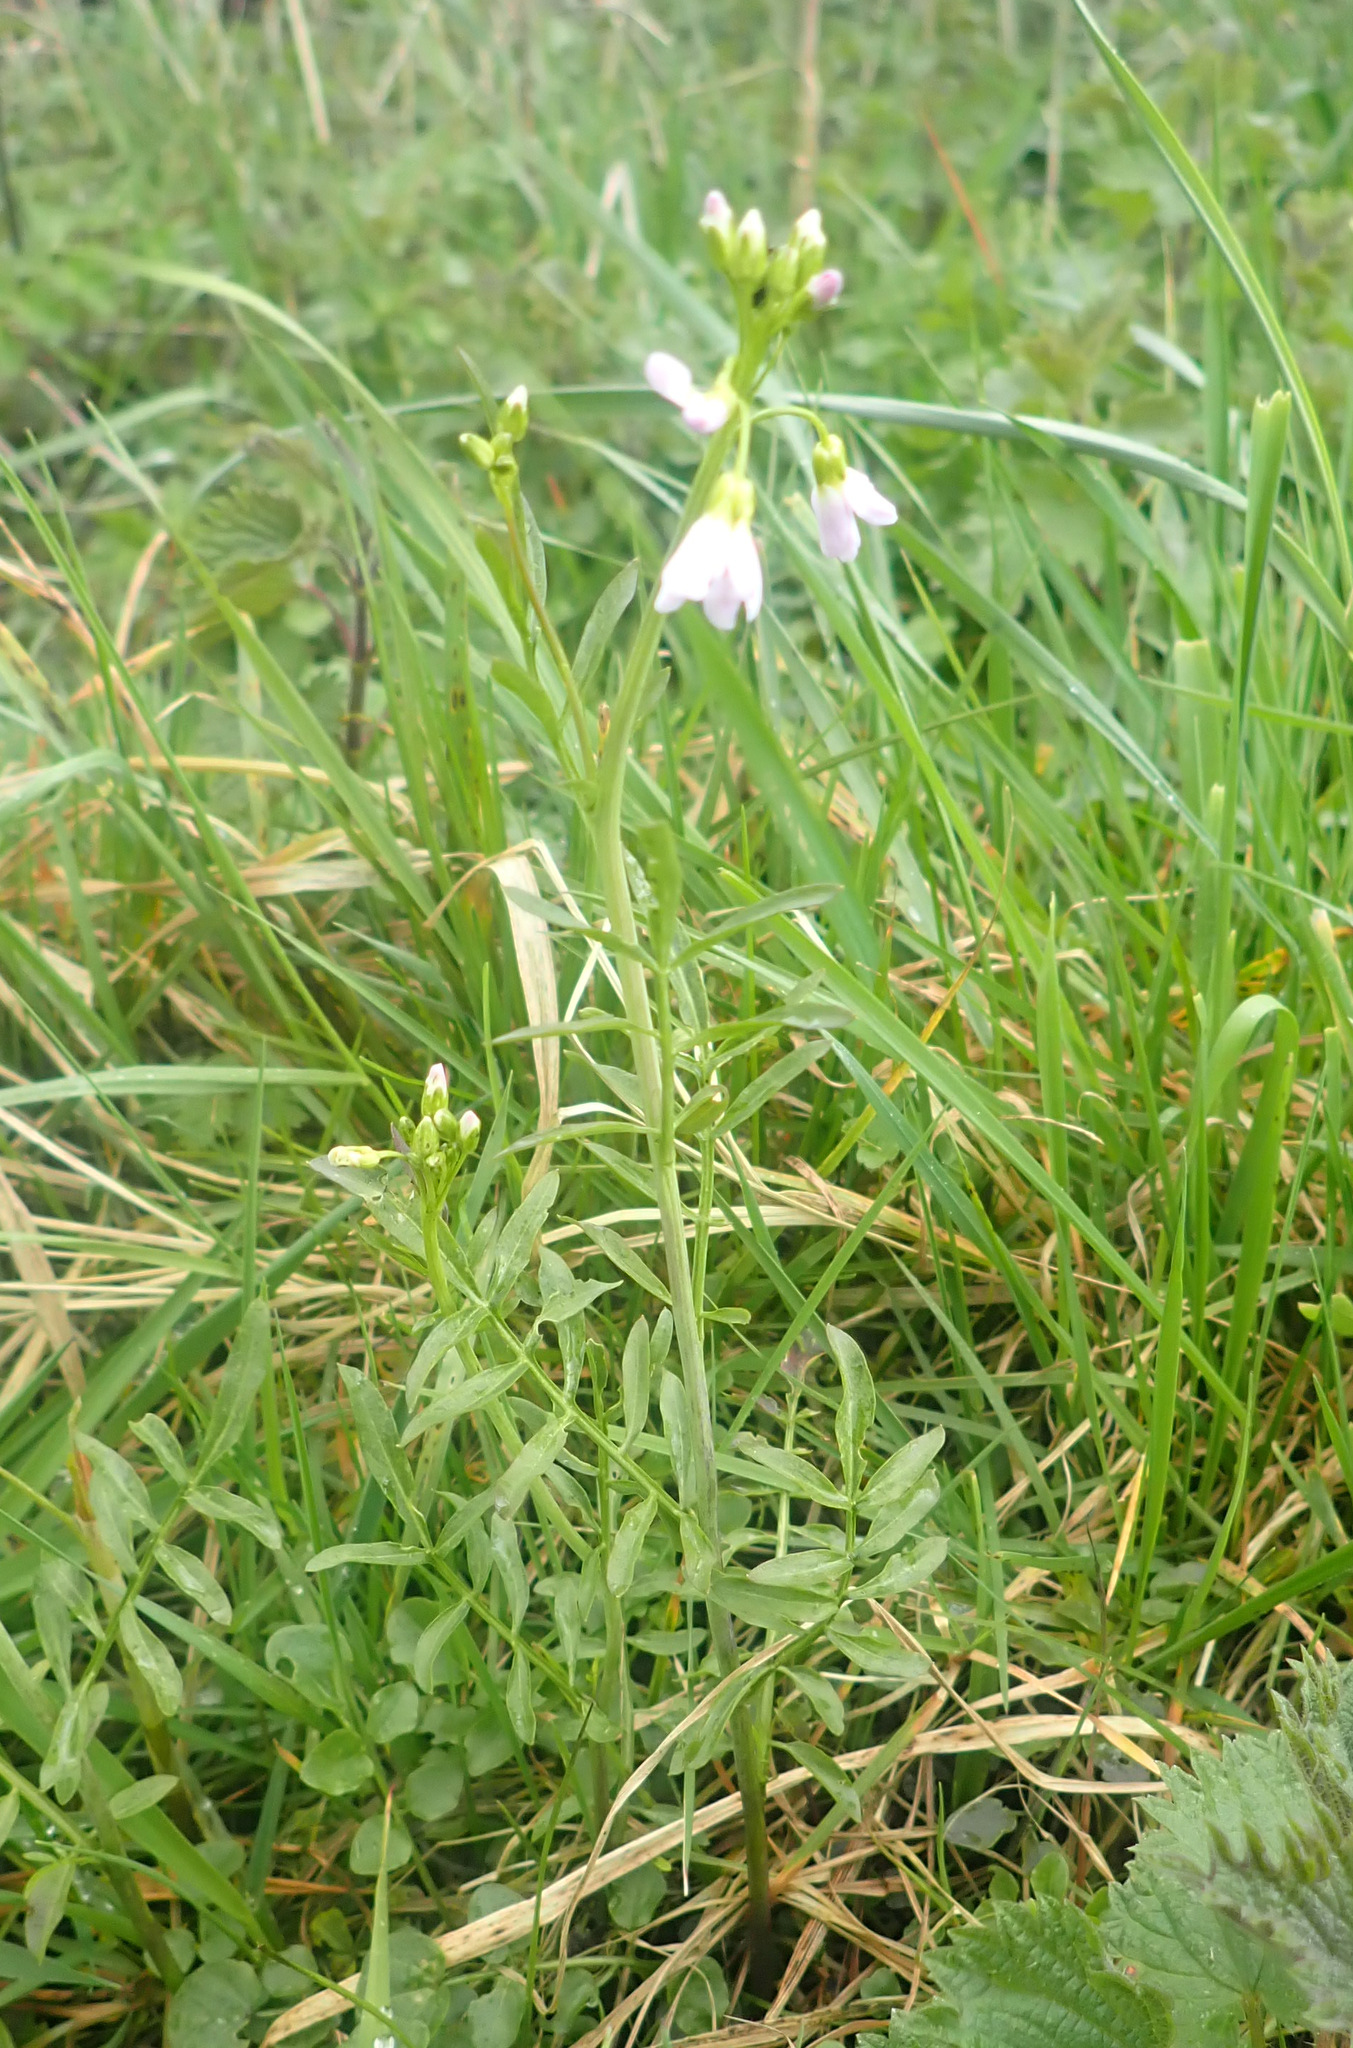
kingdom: Plantae
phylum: Tracheophyta
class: Magnoliopsida
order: Brassicales
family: Brassicaceae
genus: Cardamine
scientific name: Cardamine pratensis
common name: Cuckoo flower
